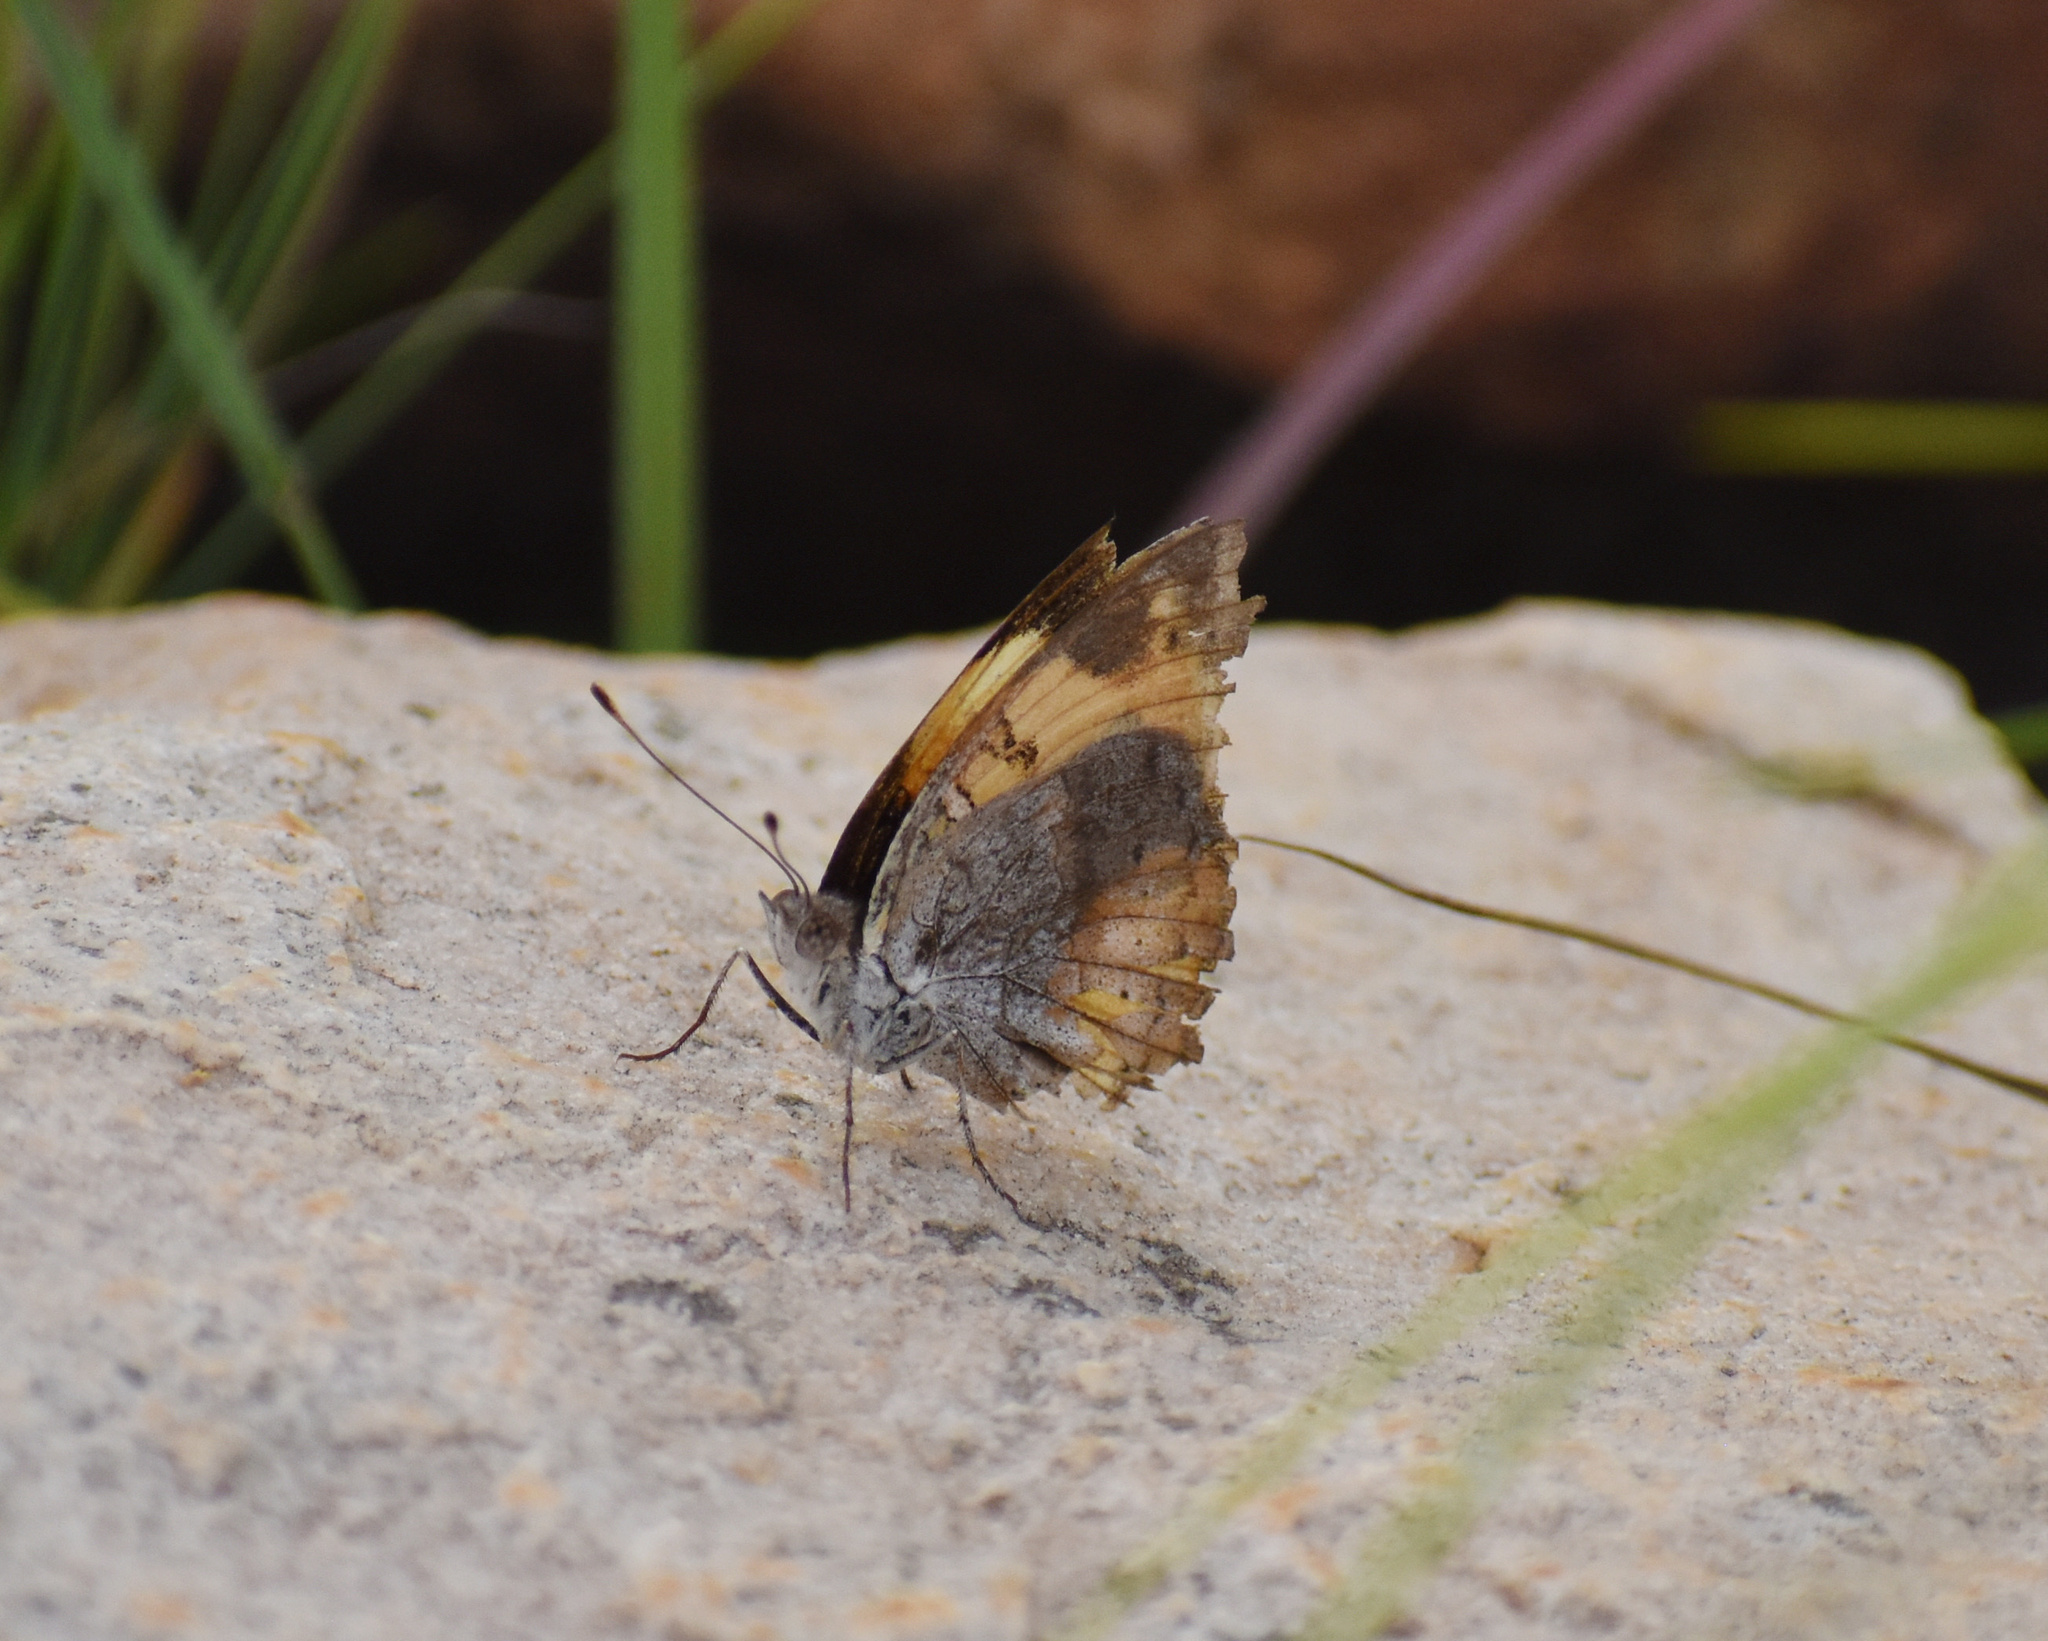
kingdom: Animalia
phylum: Arthropoda
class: Insecta
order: Lepidoptera
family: Nymphalidae
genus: Junonia
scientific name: Junonia hierta
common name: Yellow pansy
